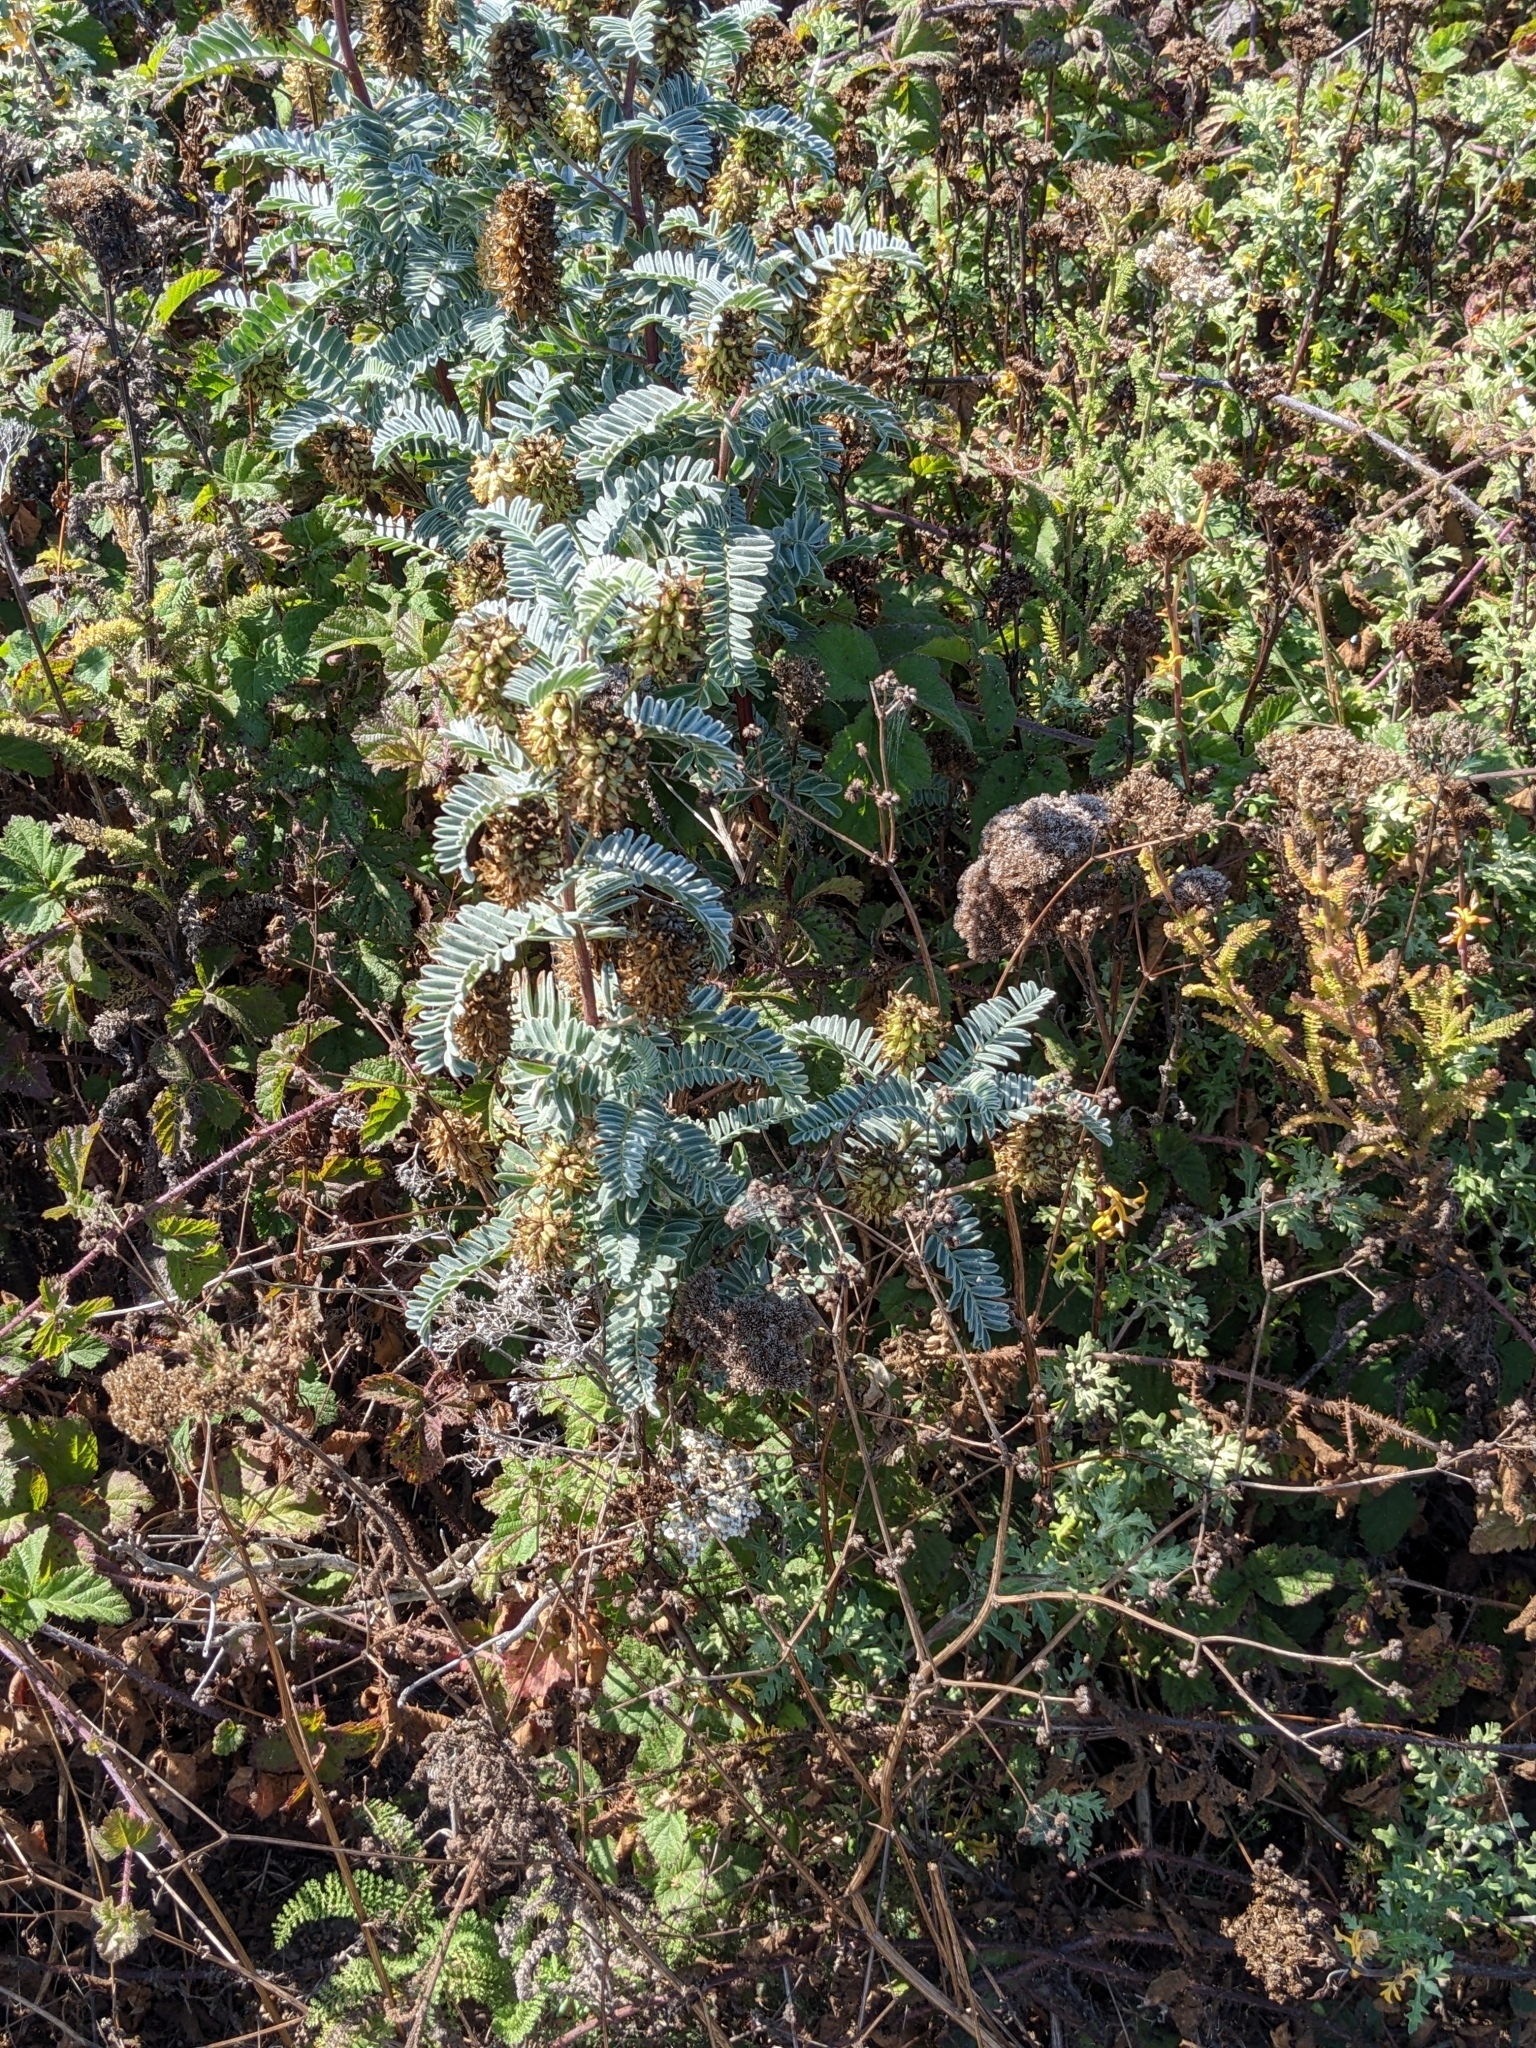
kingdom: Plantae
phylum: Tracheophyta
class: Magnoliopsida
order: Fabales
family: Fabaceae
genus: Astragalus
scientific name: Astragalus pycnostachyus
